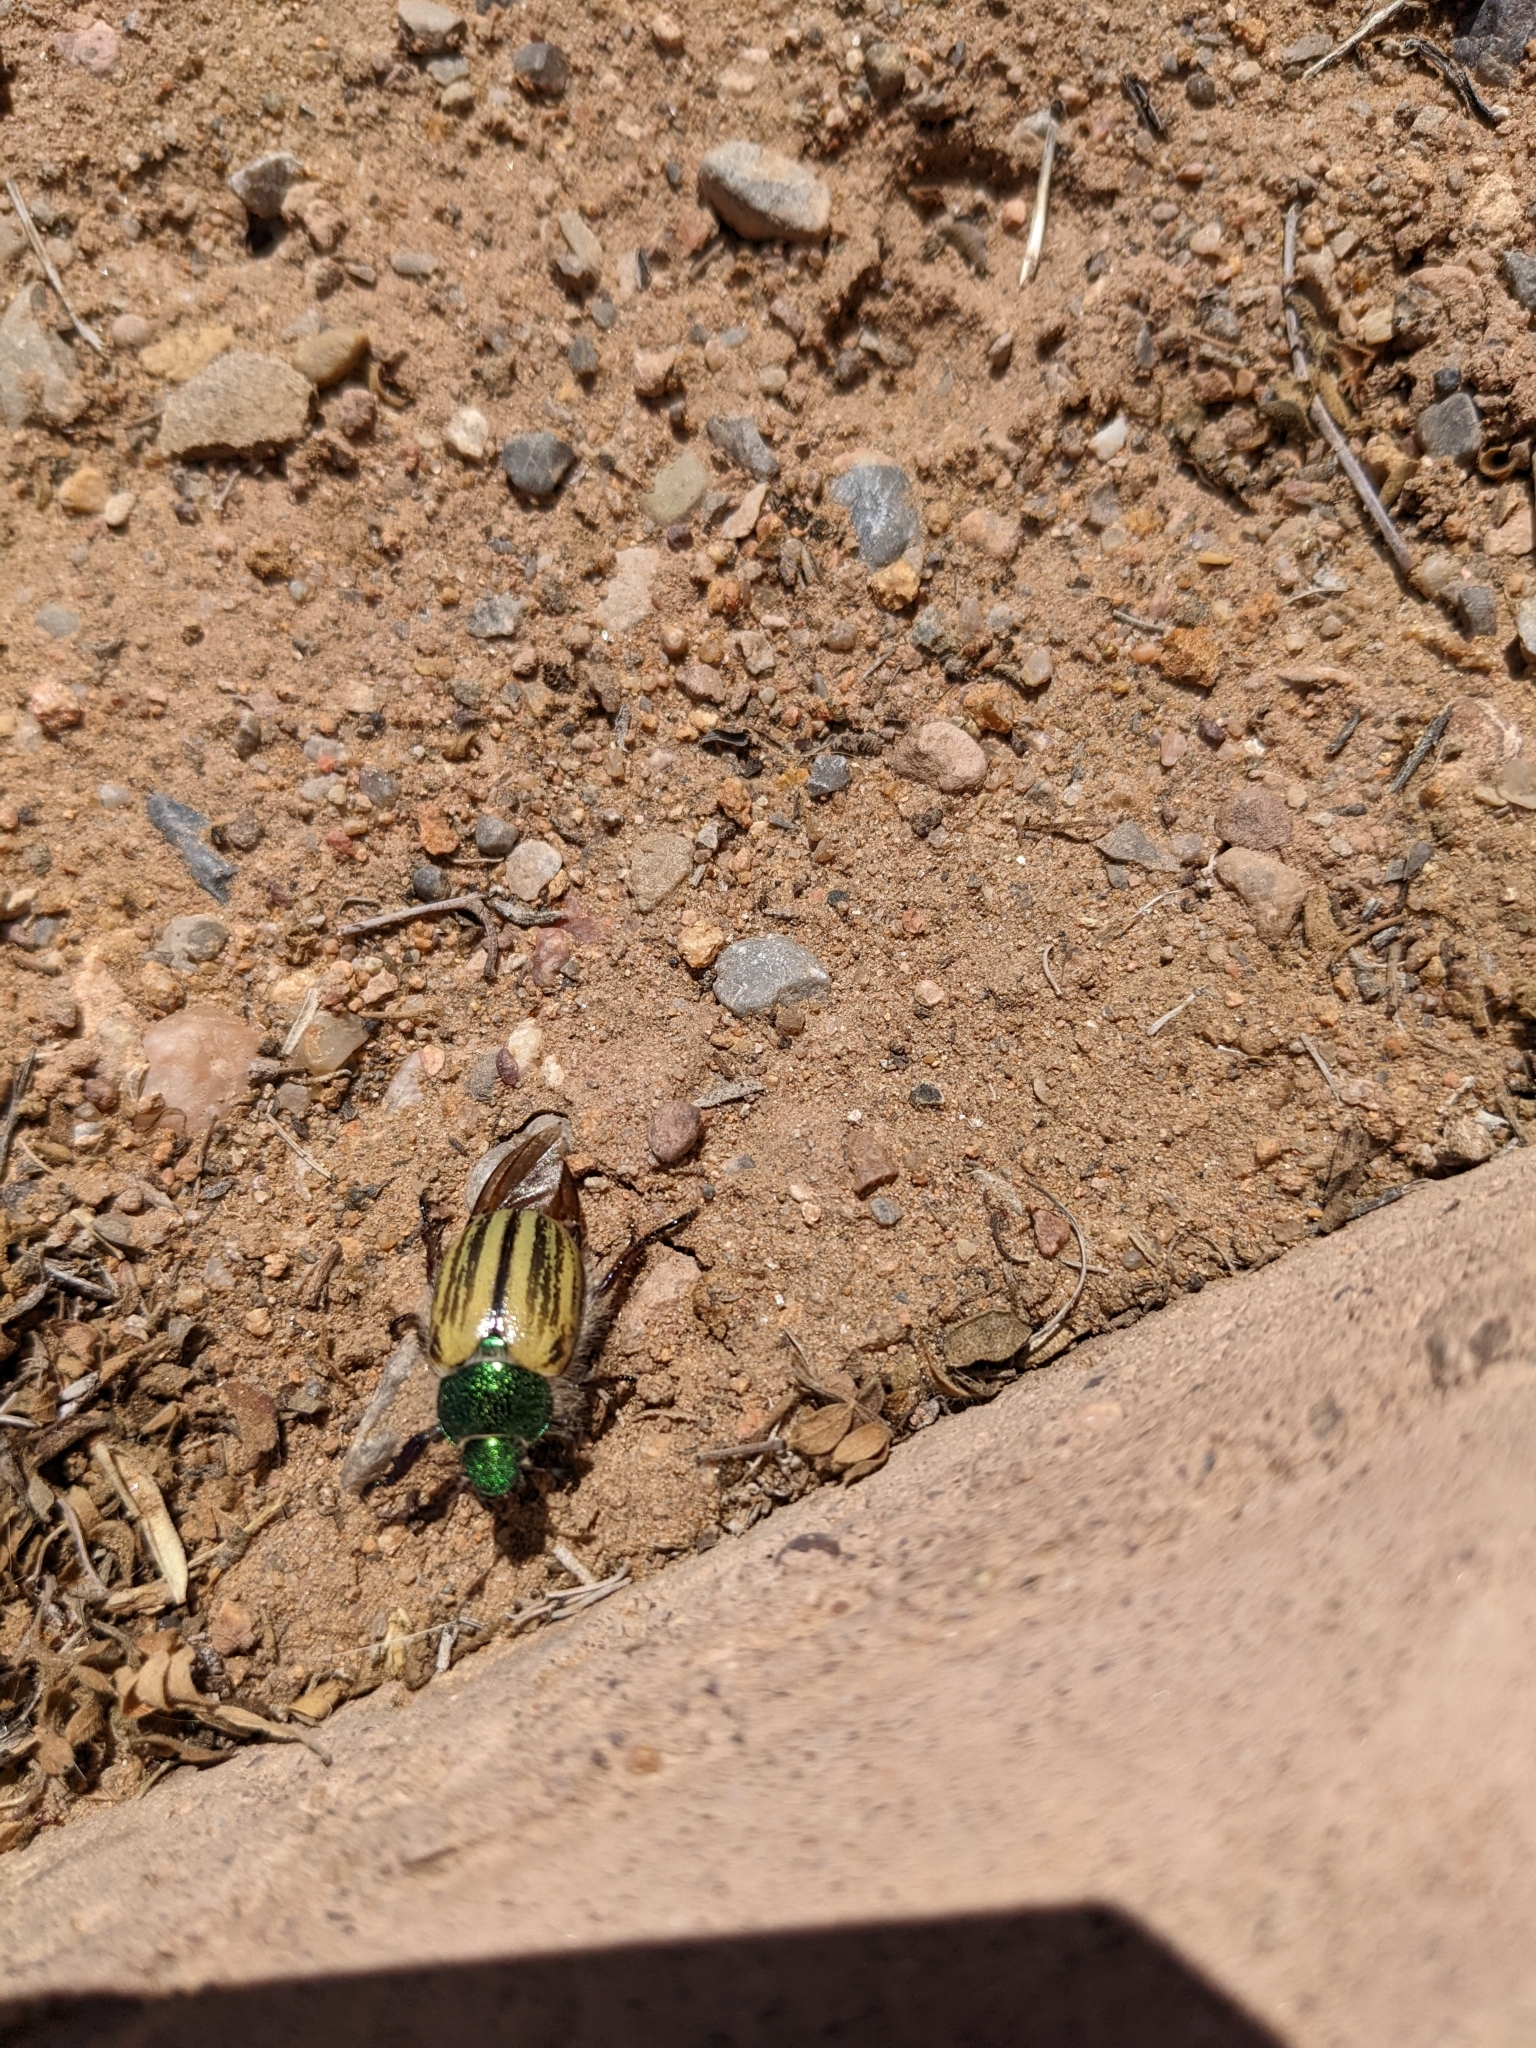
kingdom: Animalia
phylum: Arthropoda
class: Insecta
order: Coleoptera
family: Scarabaeidae
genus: Paracotalpa
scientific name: Paracotalpa puncticollis
